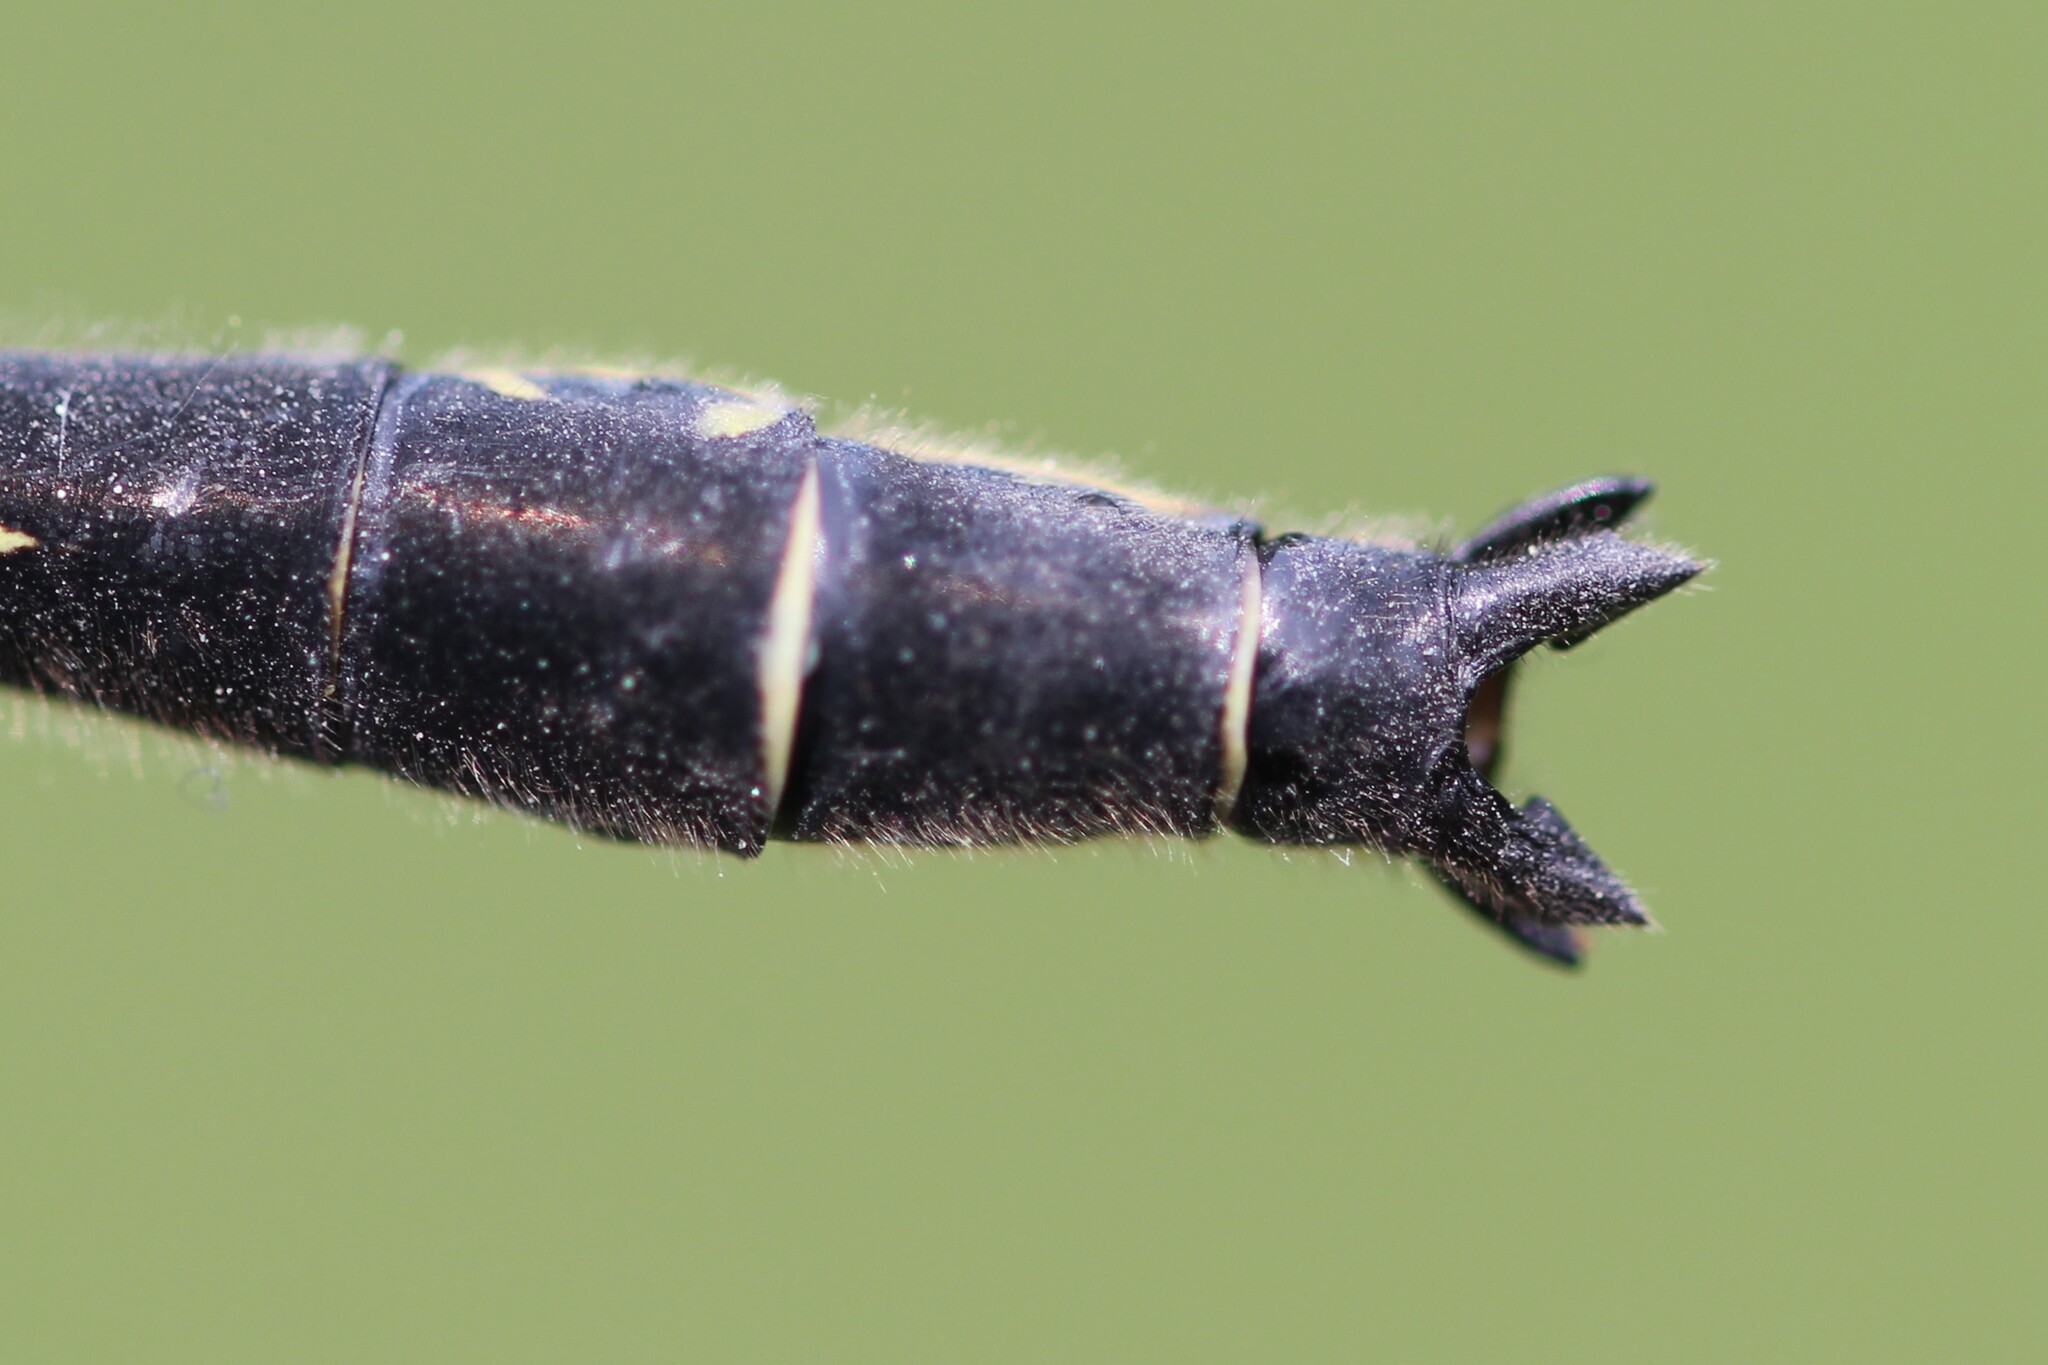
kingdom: Animalia
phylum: Arthropoda
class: Insecta
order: Odonata
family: Gomphidae
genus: Phanogomphus
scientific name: Phanogomphus descriptus
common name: Harpoon clubtail
